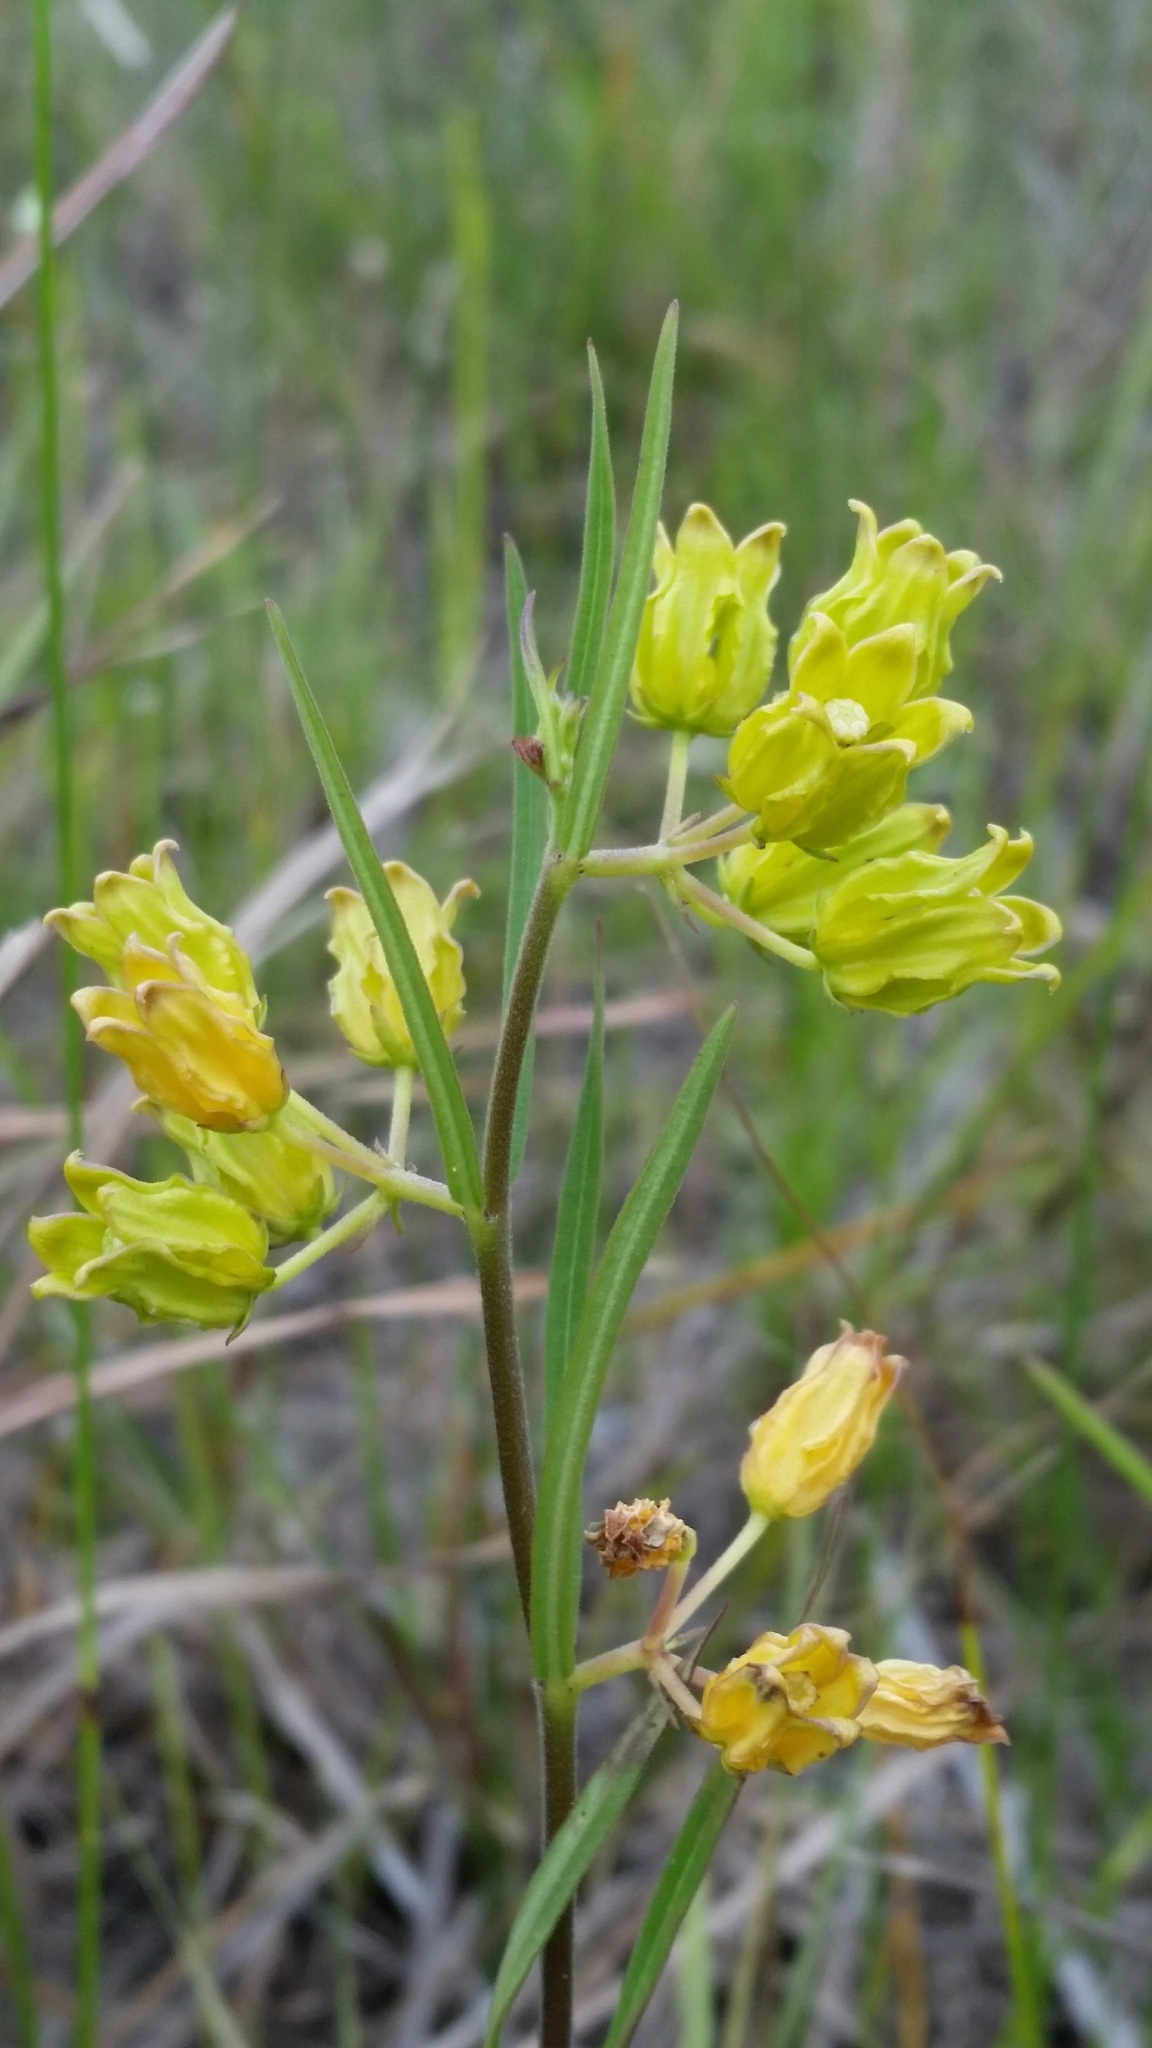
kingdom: Plantae
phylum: Tracheophyta
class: Magnoliopsida
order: Gentianales
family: Apocynaceae
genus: Asclepias
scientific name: Asclepias pedicellata
